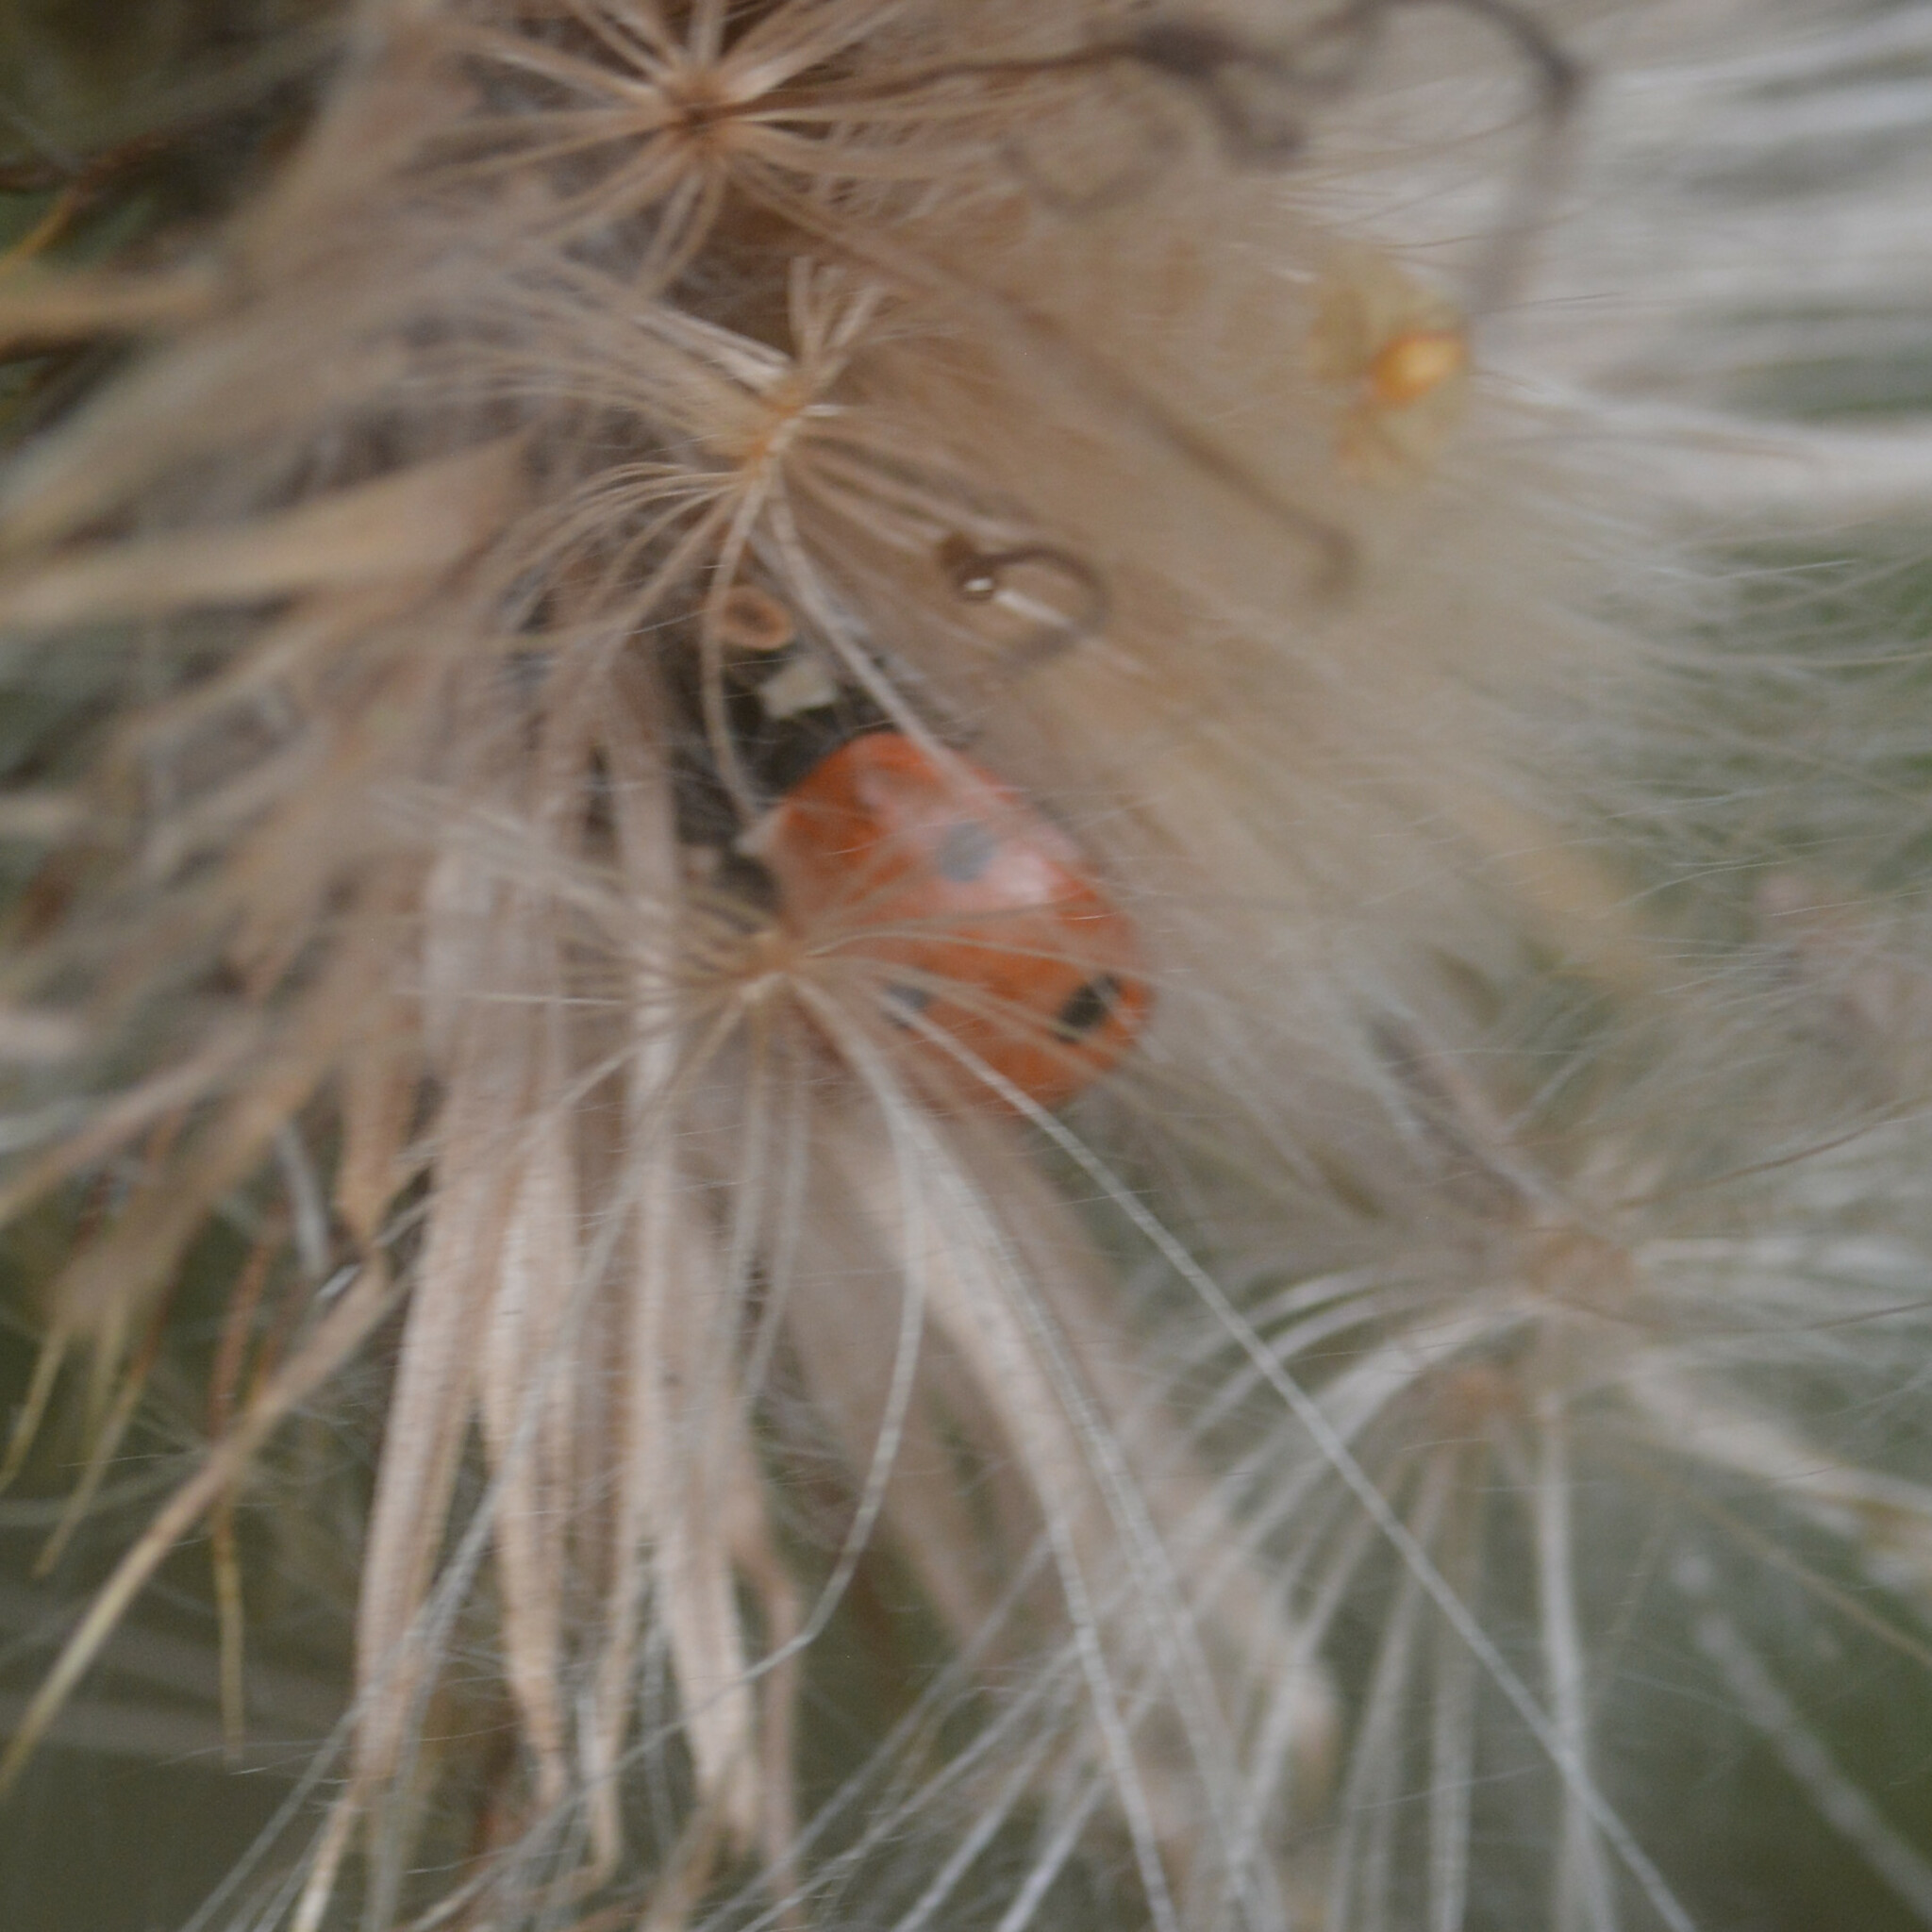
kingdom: Animalia
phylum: Arthropoda
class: Insecta
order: Coleoptera
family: Coccinellidae
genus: Coccinella
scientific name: Coccinella septempunctata
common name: Sevenspotted lady beetle
